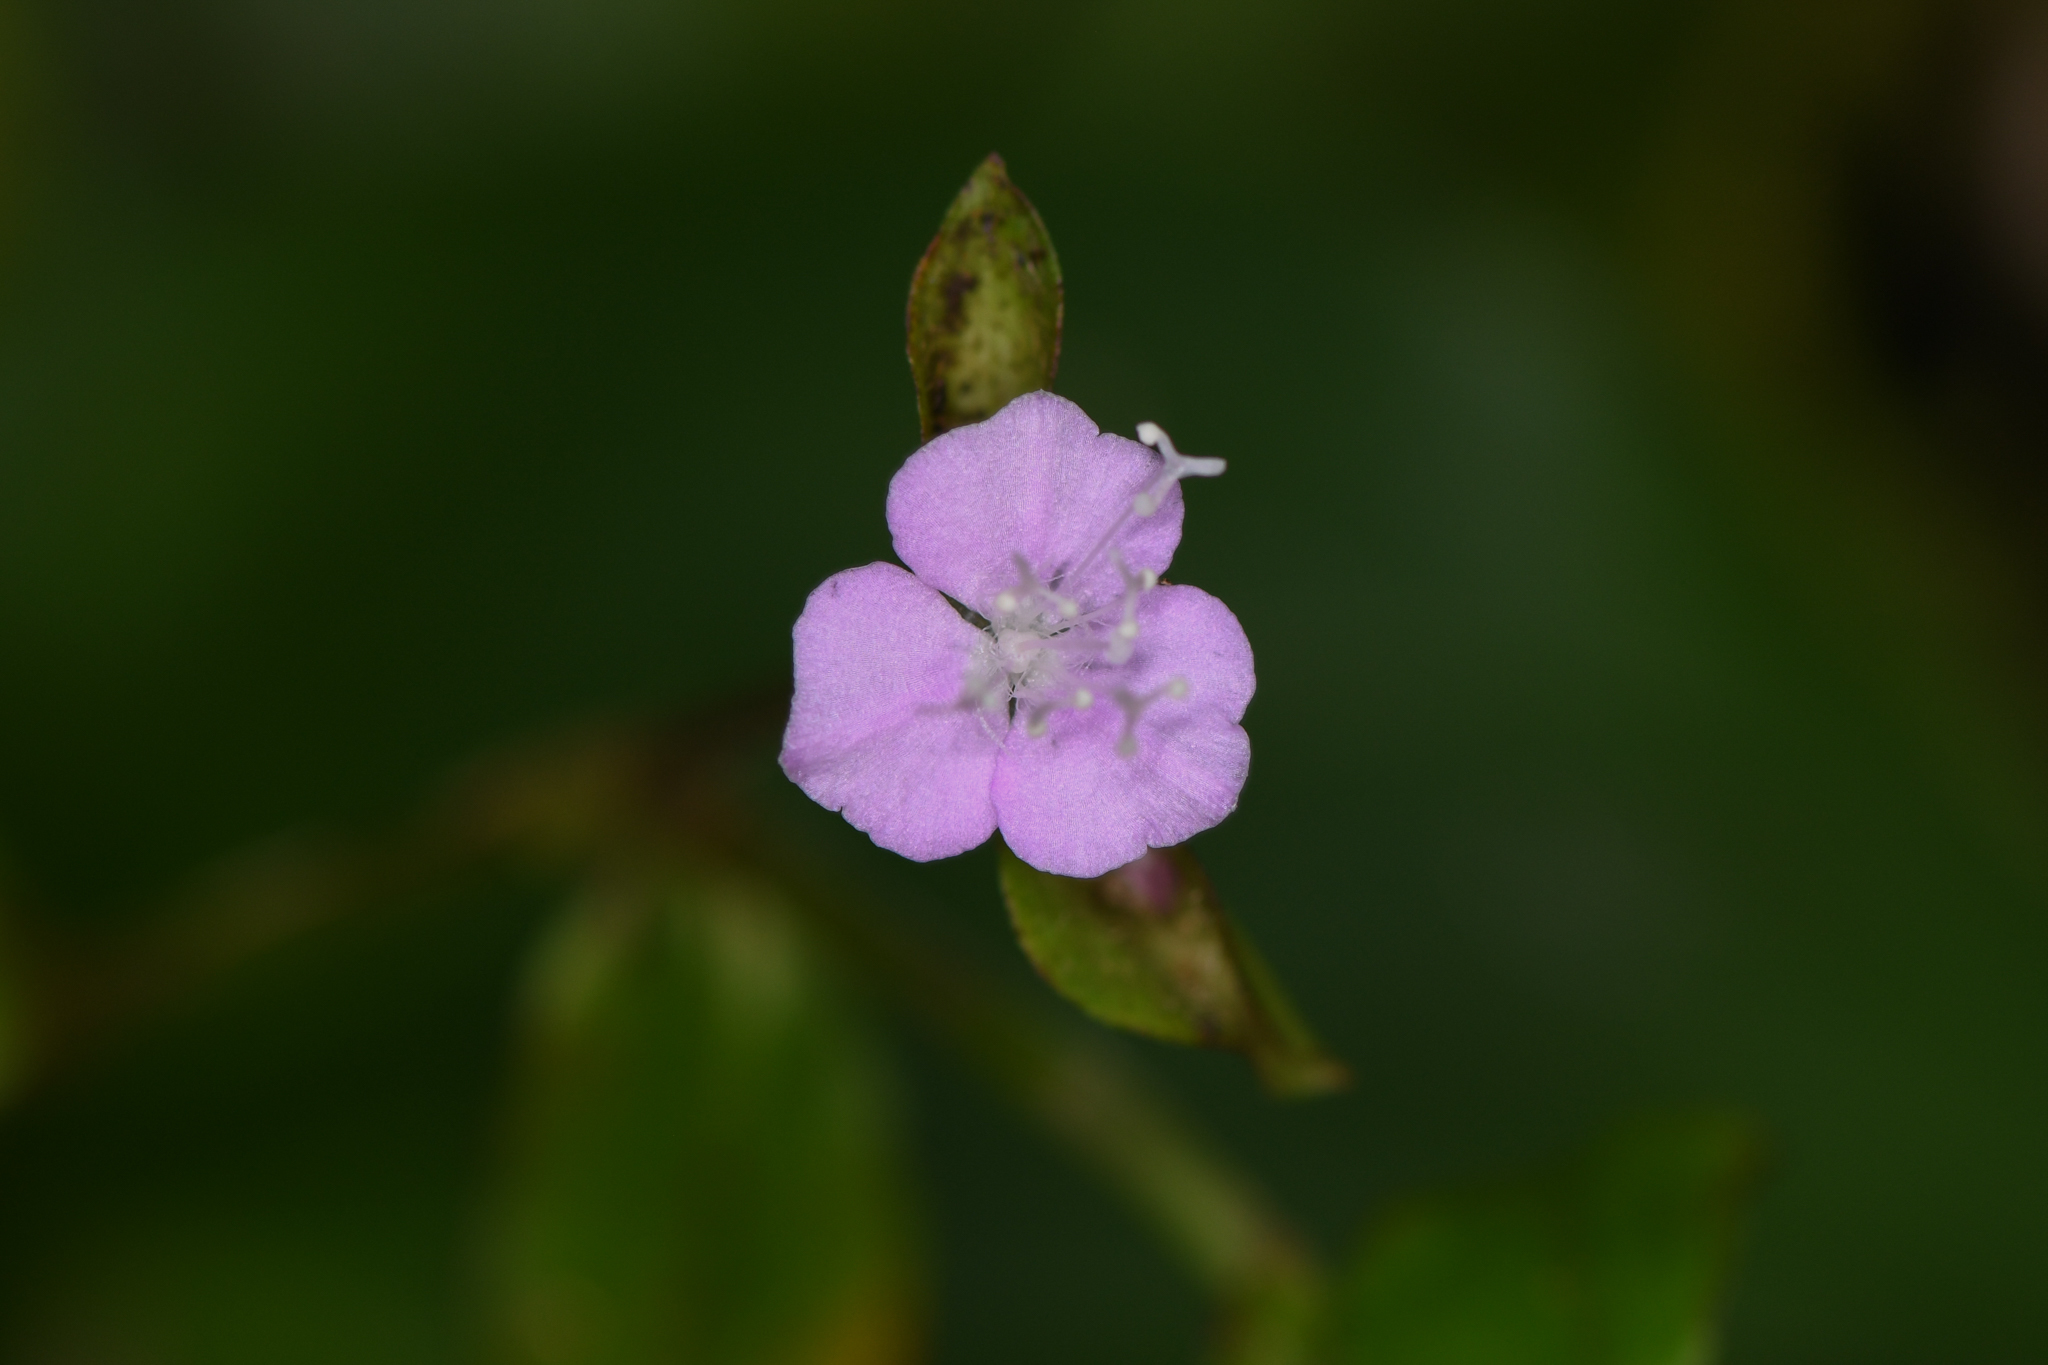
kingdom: Plantae
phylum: Tracheophyta
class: Liliopsida
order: Commelinales
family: Commelinaceae
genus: Tradescantia
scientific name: Tradescantia poelliae
